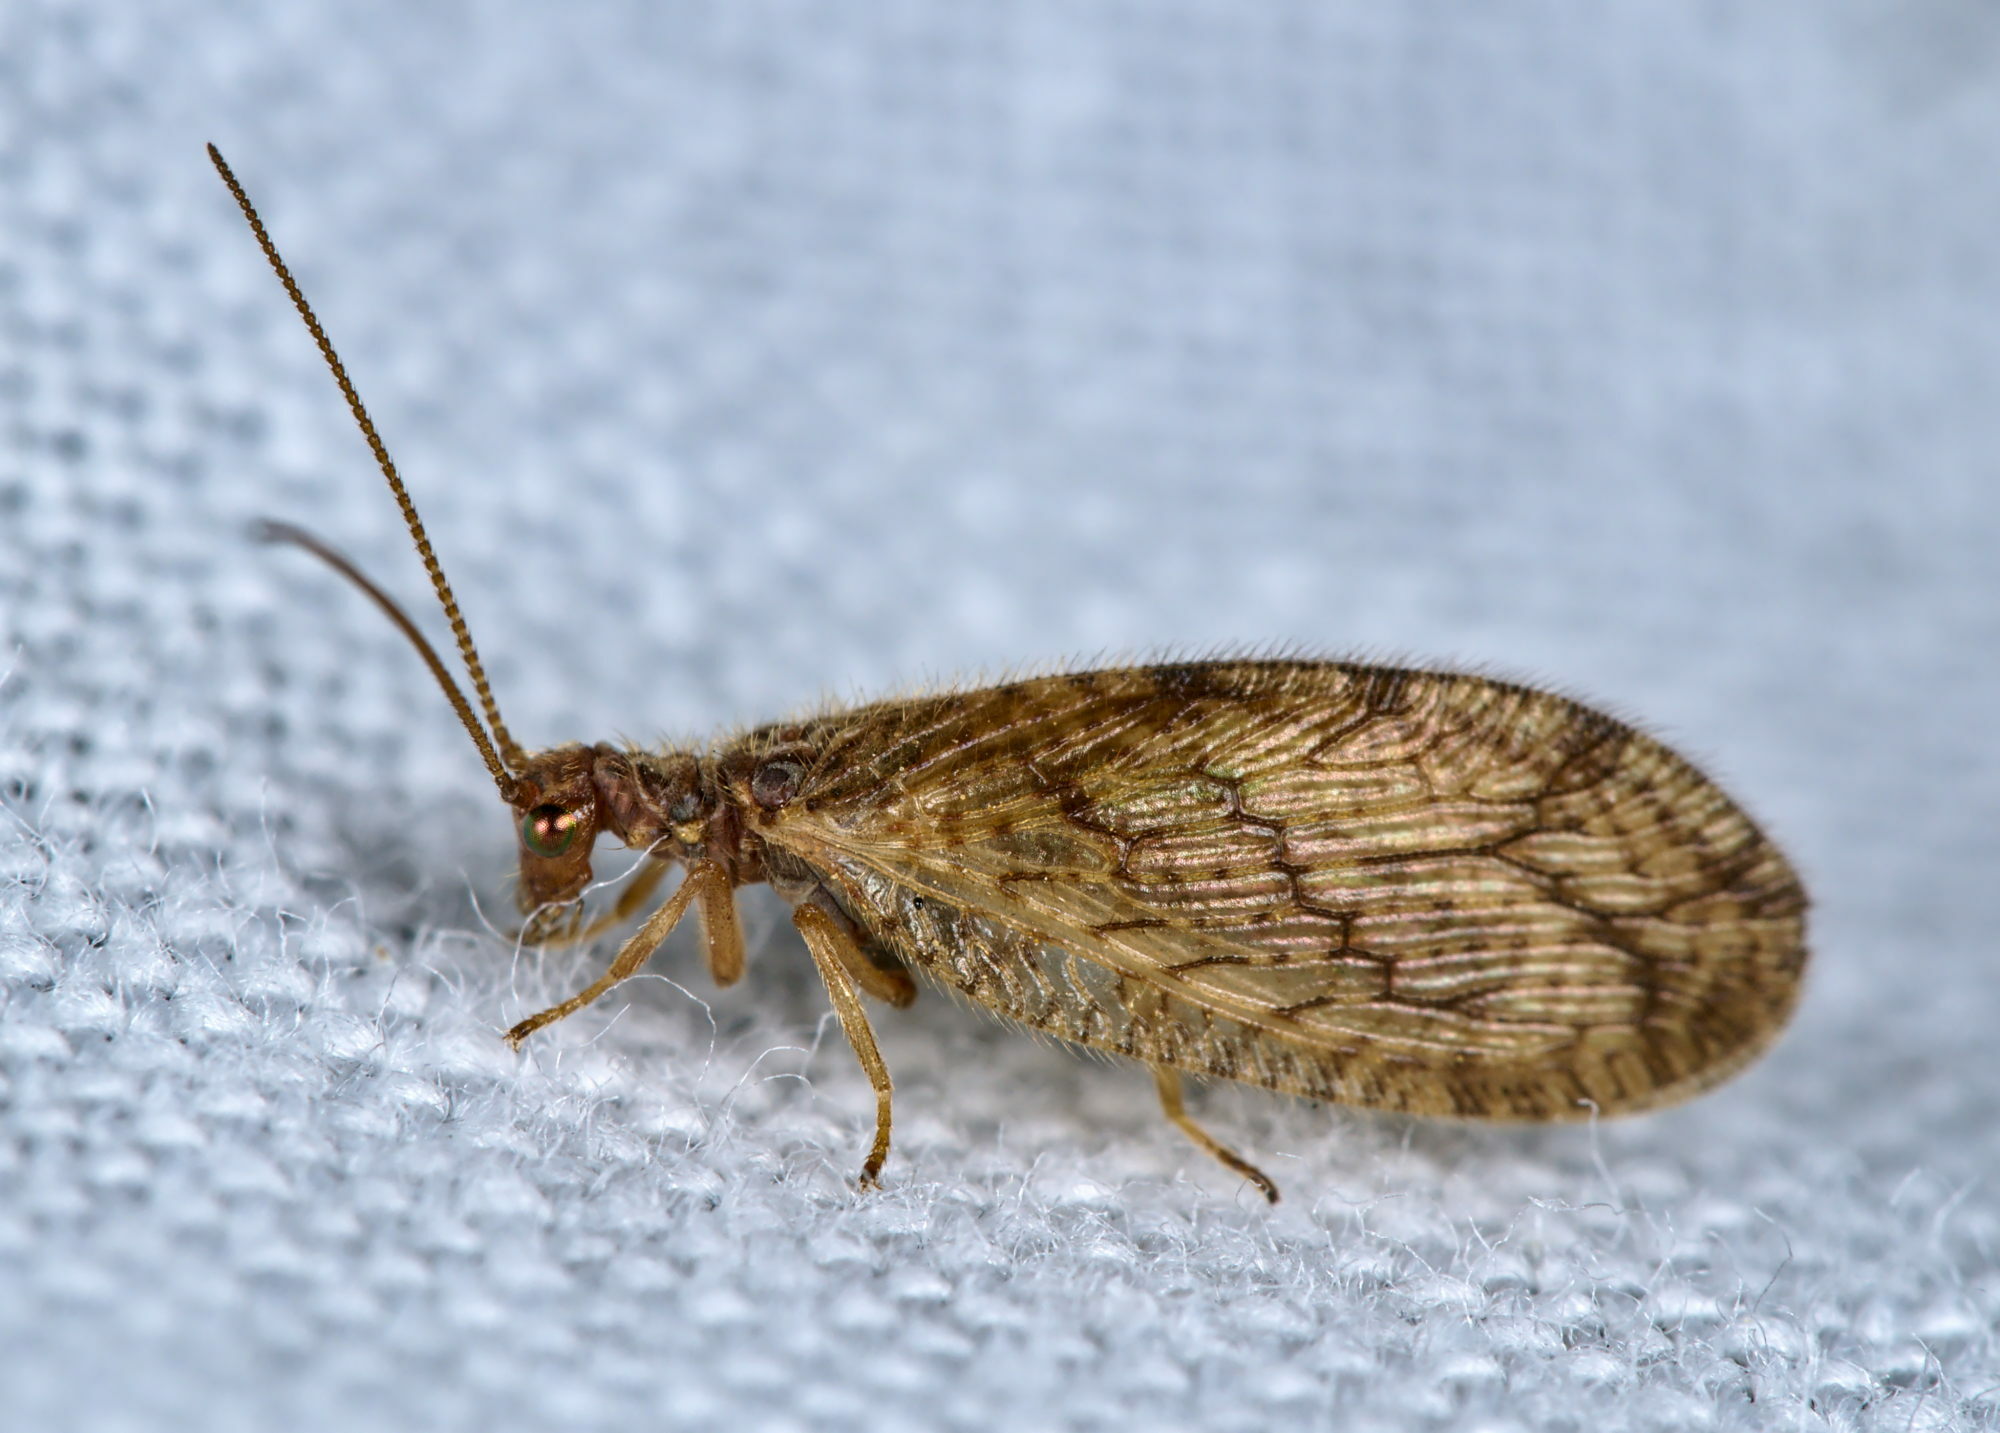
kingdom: Animalia
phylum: Arthropoda
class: Insecta
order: Neuroptera
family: Hemerobiidae
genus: Micromus
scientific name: Micromus angulatus
